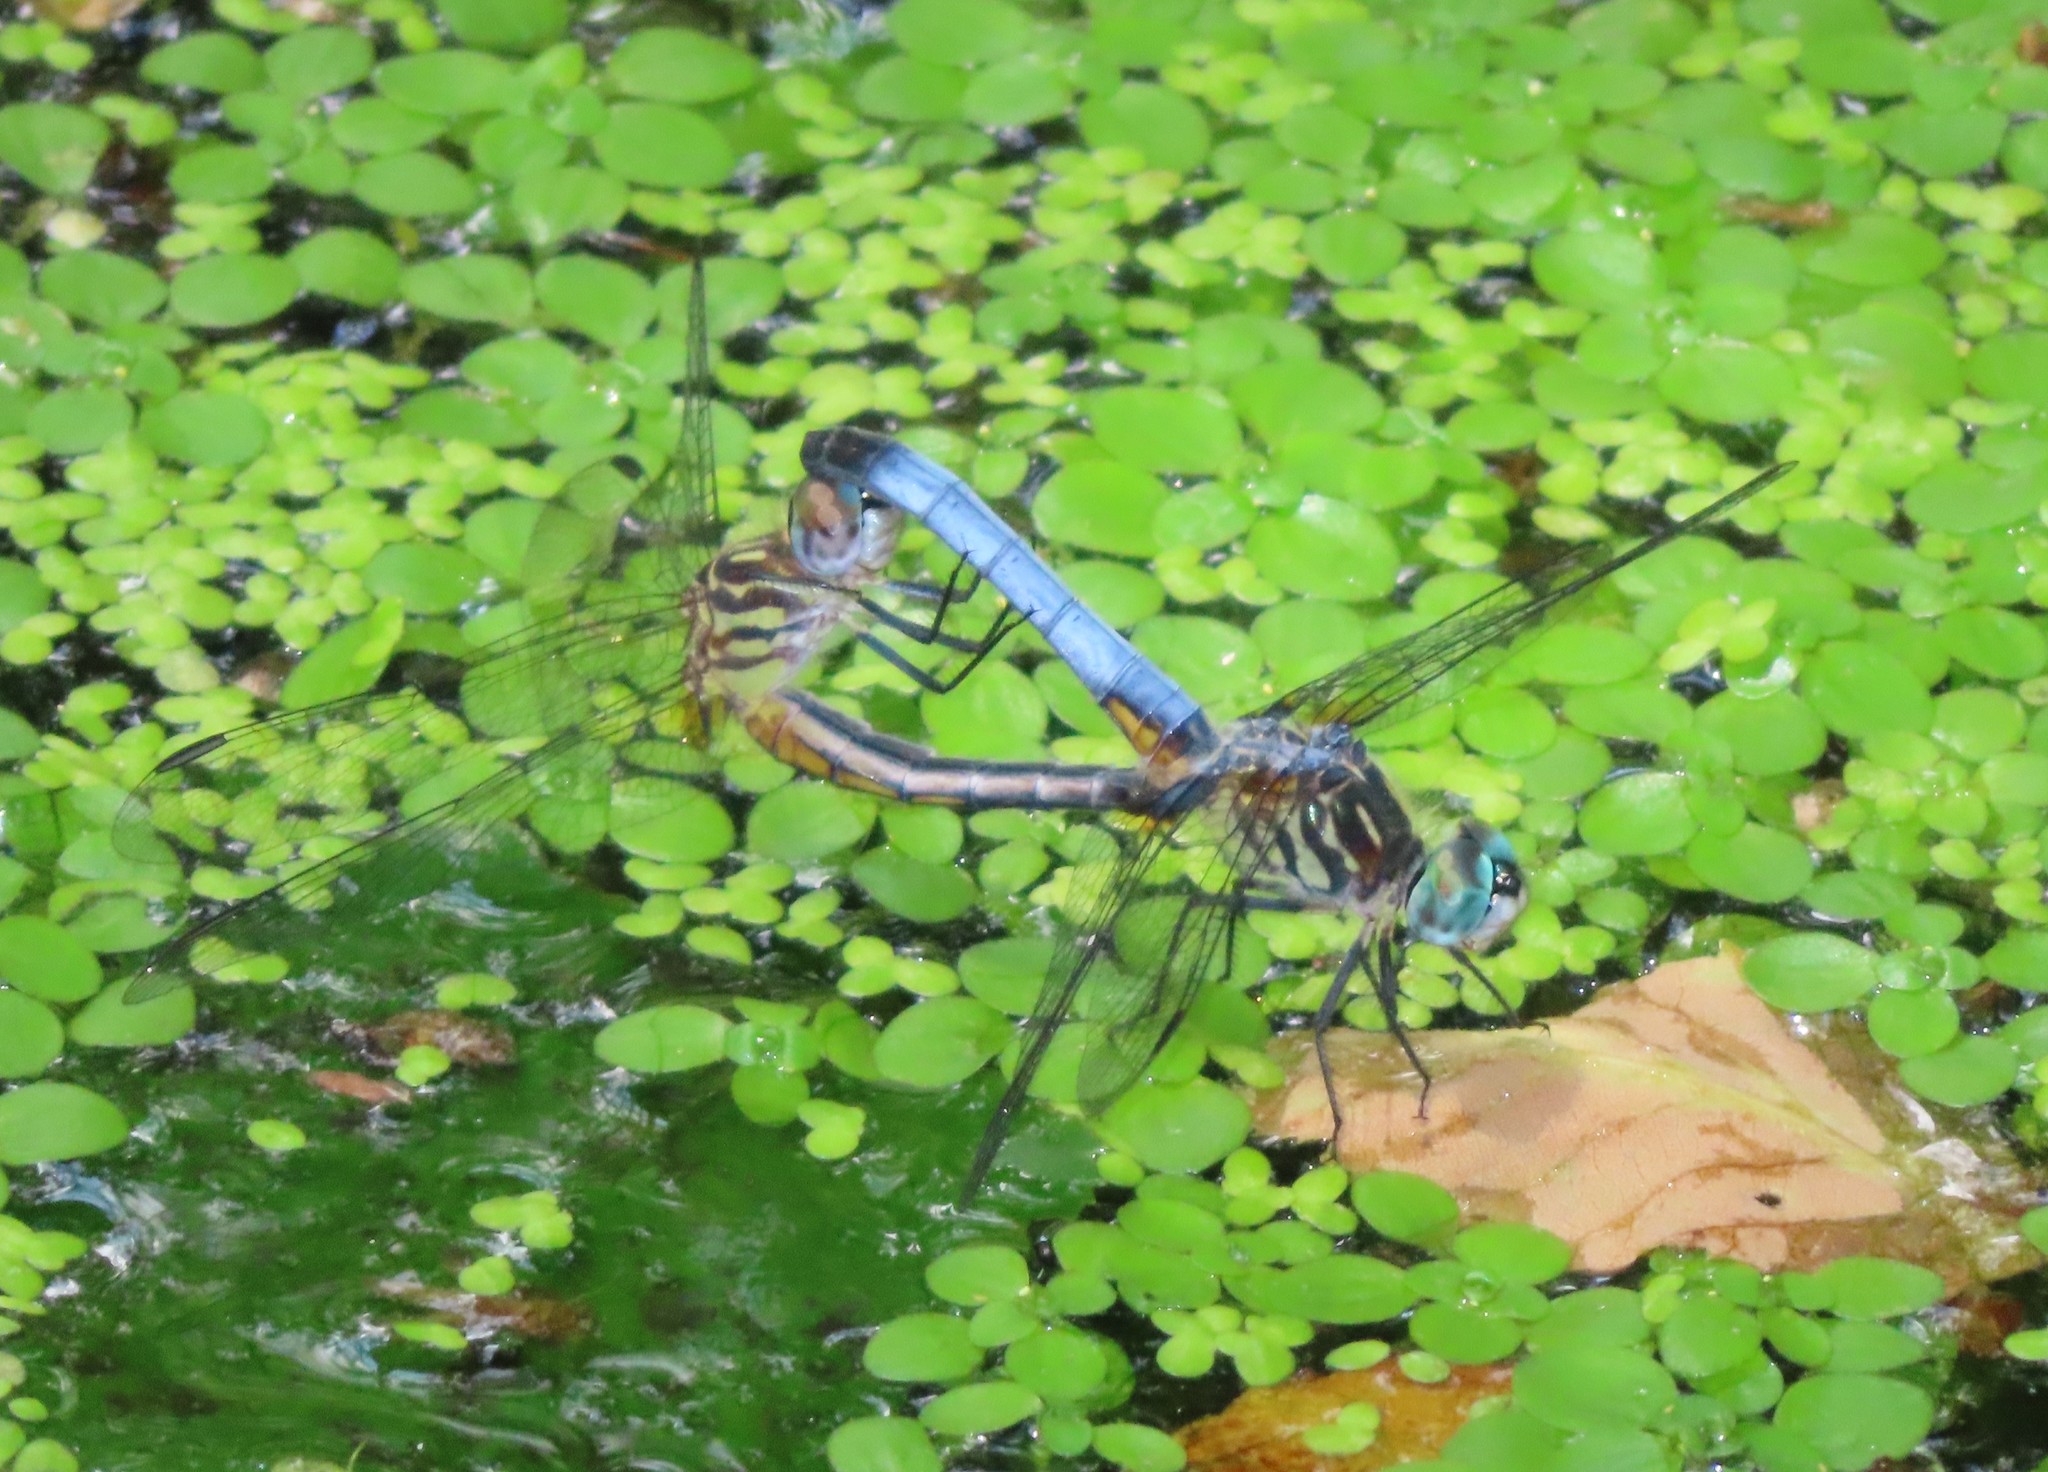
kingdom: Animalia
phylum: Arthropoda
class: Insecta
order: Odonata
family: Libellulidae
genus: Pachydiplax
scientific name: Pachydiplax longipennis
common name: Blue dasher
